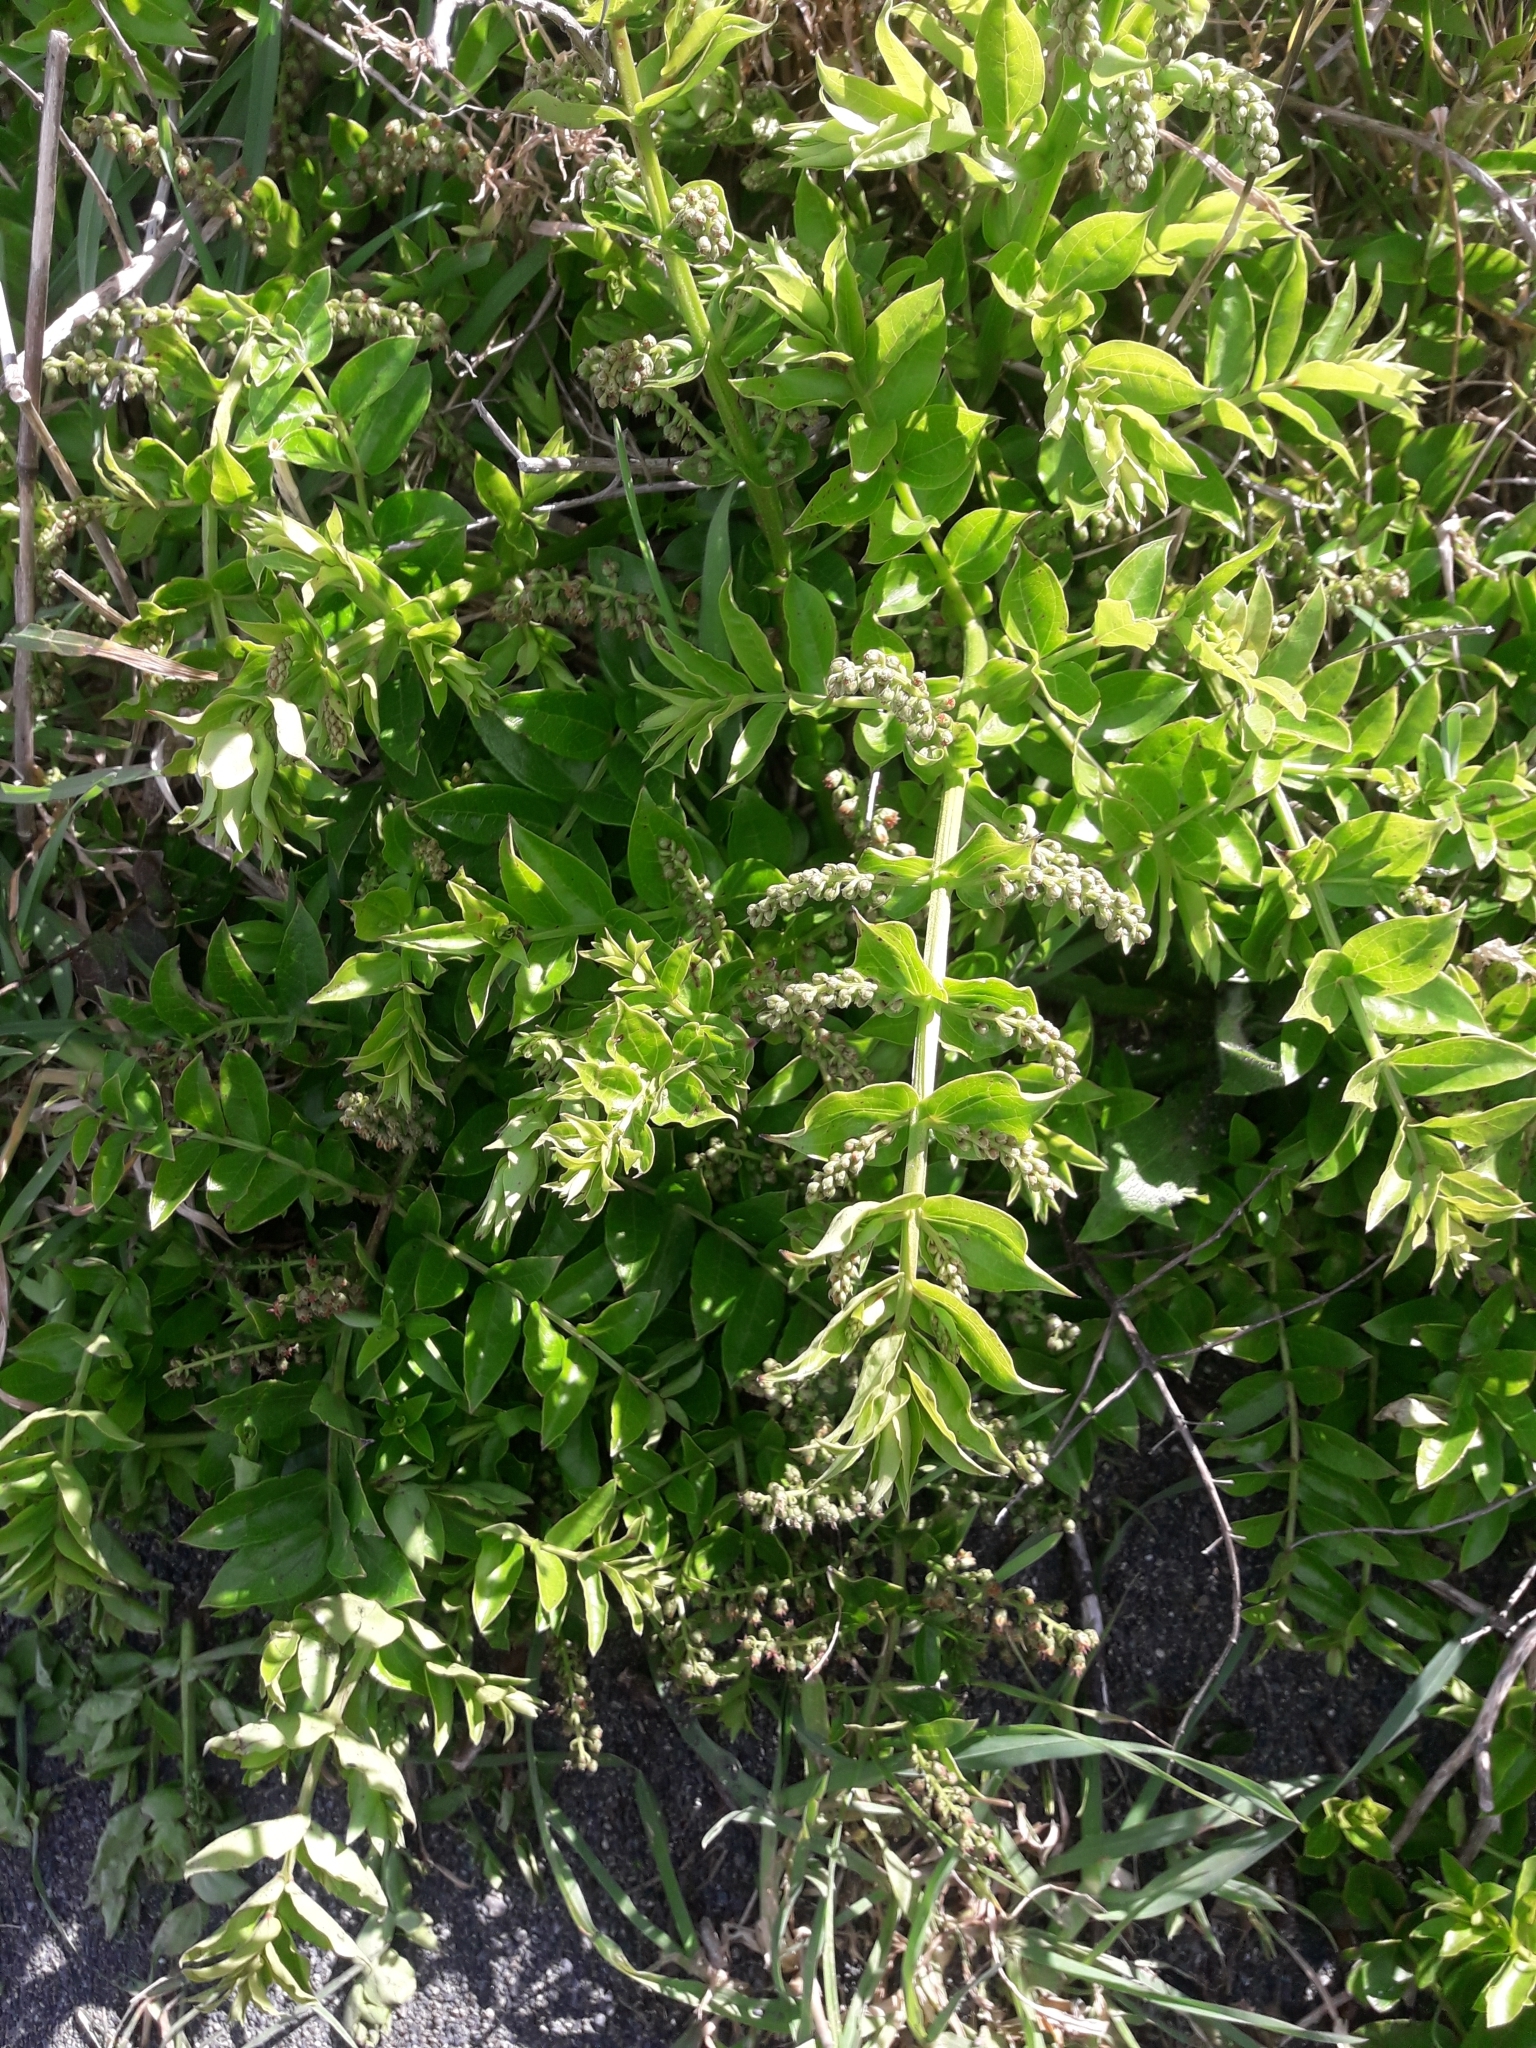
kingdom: Plantae
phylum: Tracheophyta
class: Magnoliopsida
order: Cucurbitales
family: Coriariaceae
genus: Coriaria
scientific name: Coriaria sarmentosa
